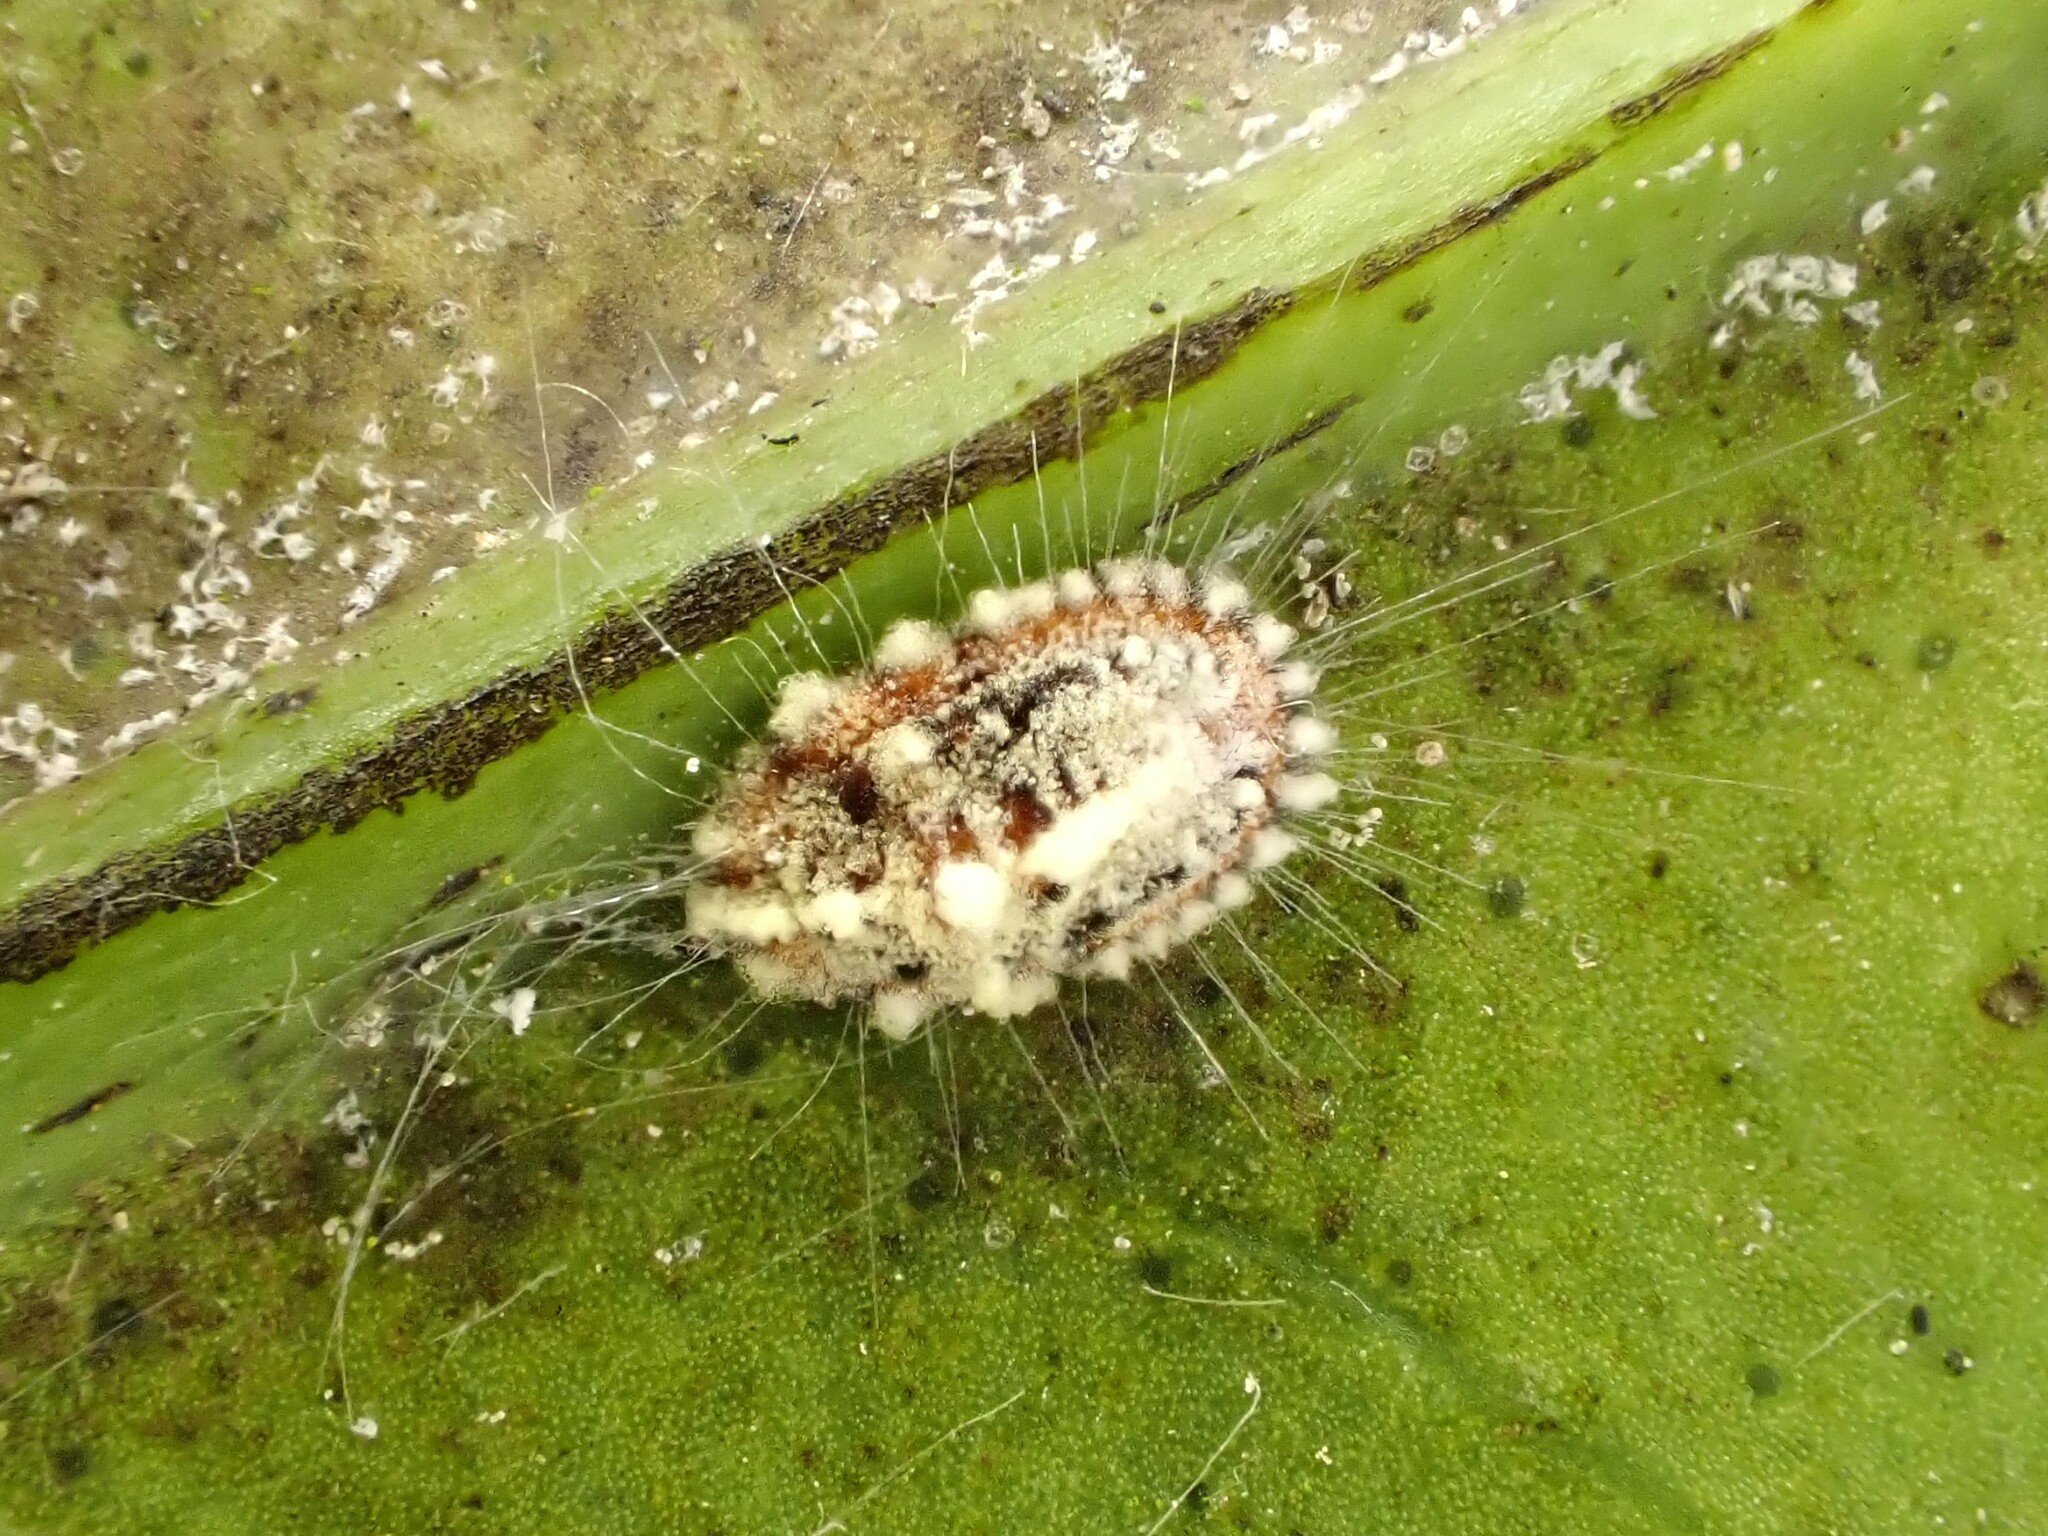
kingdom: Animalia
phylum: Arthropoda
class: Insecta
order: Hemiptera
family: Margarodidae
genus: Icerya
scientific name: Icerya purchasi
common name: Cottony cushion scale
